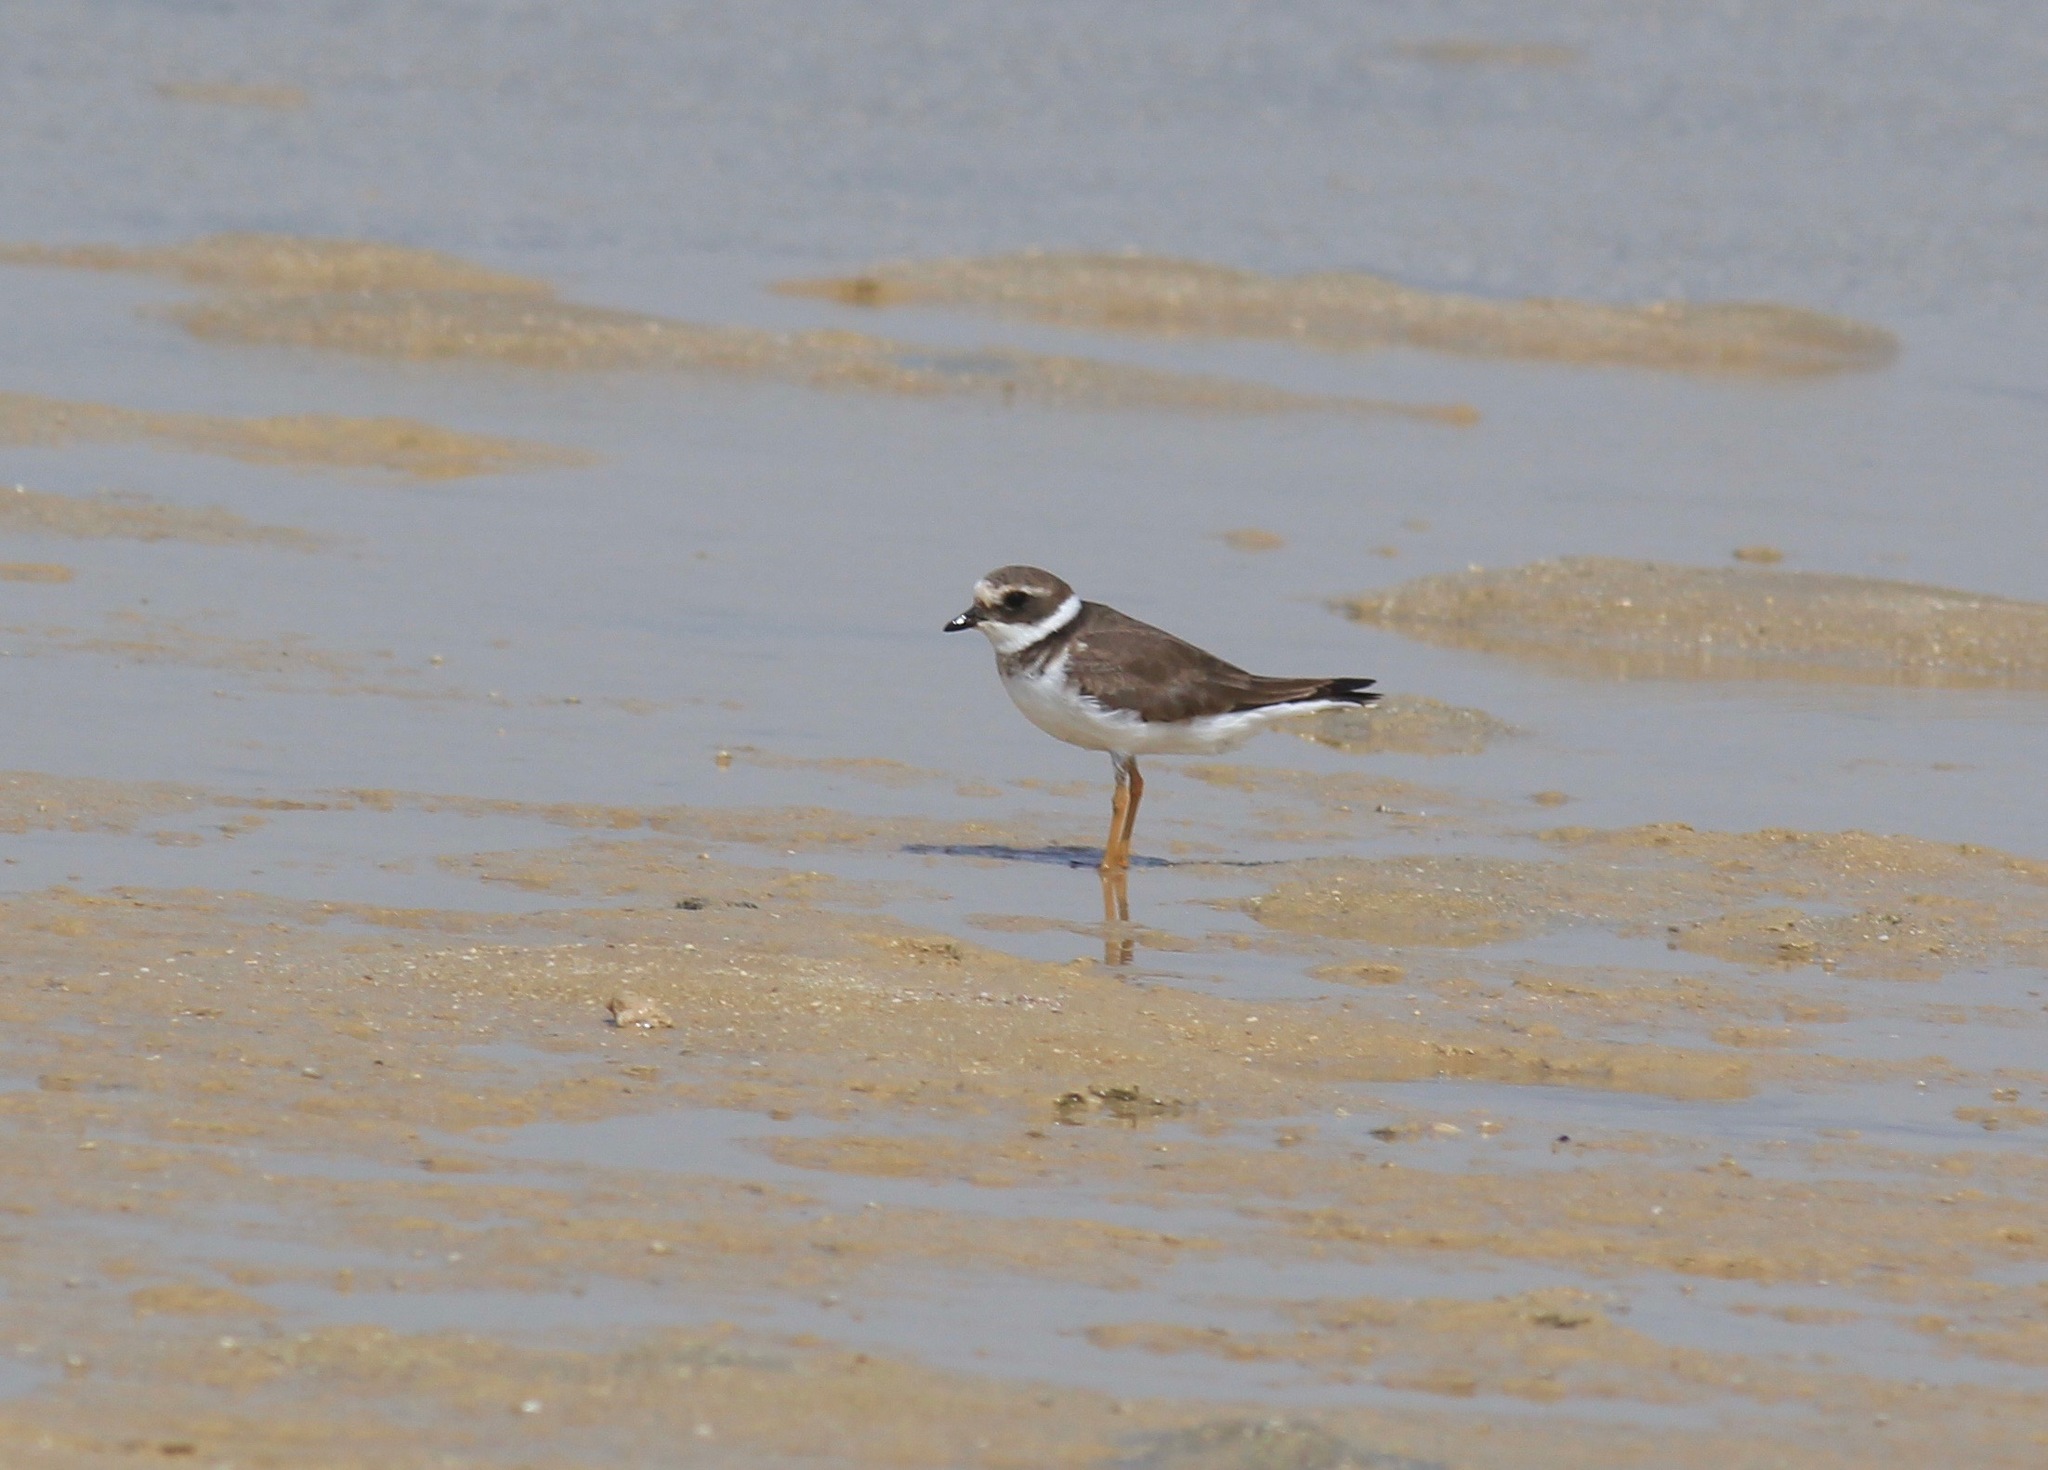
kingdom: Animalia
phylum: Chordata
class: Aves
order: Charadriiformes
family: Charadriidae
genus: Charadrius
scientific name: Charadrius dubius
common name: Little ringed plover
